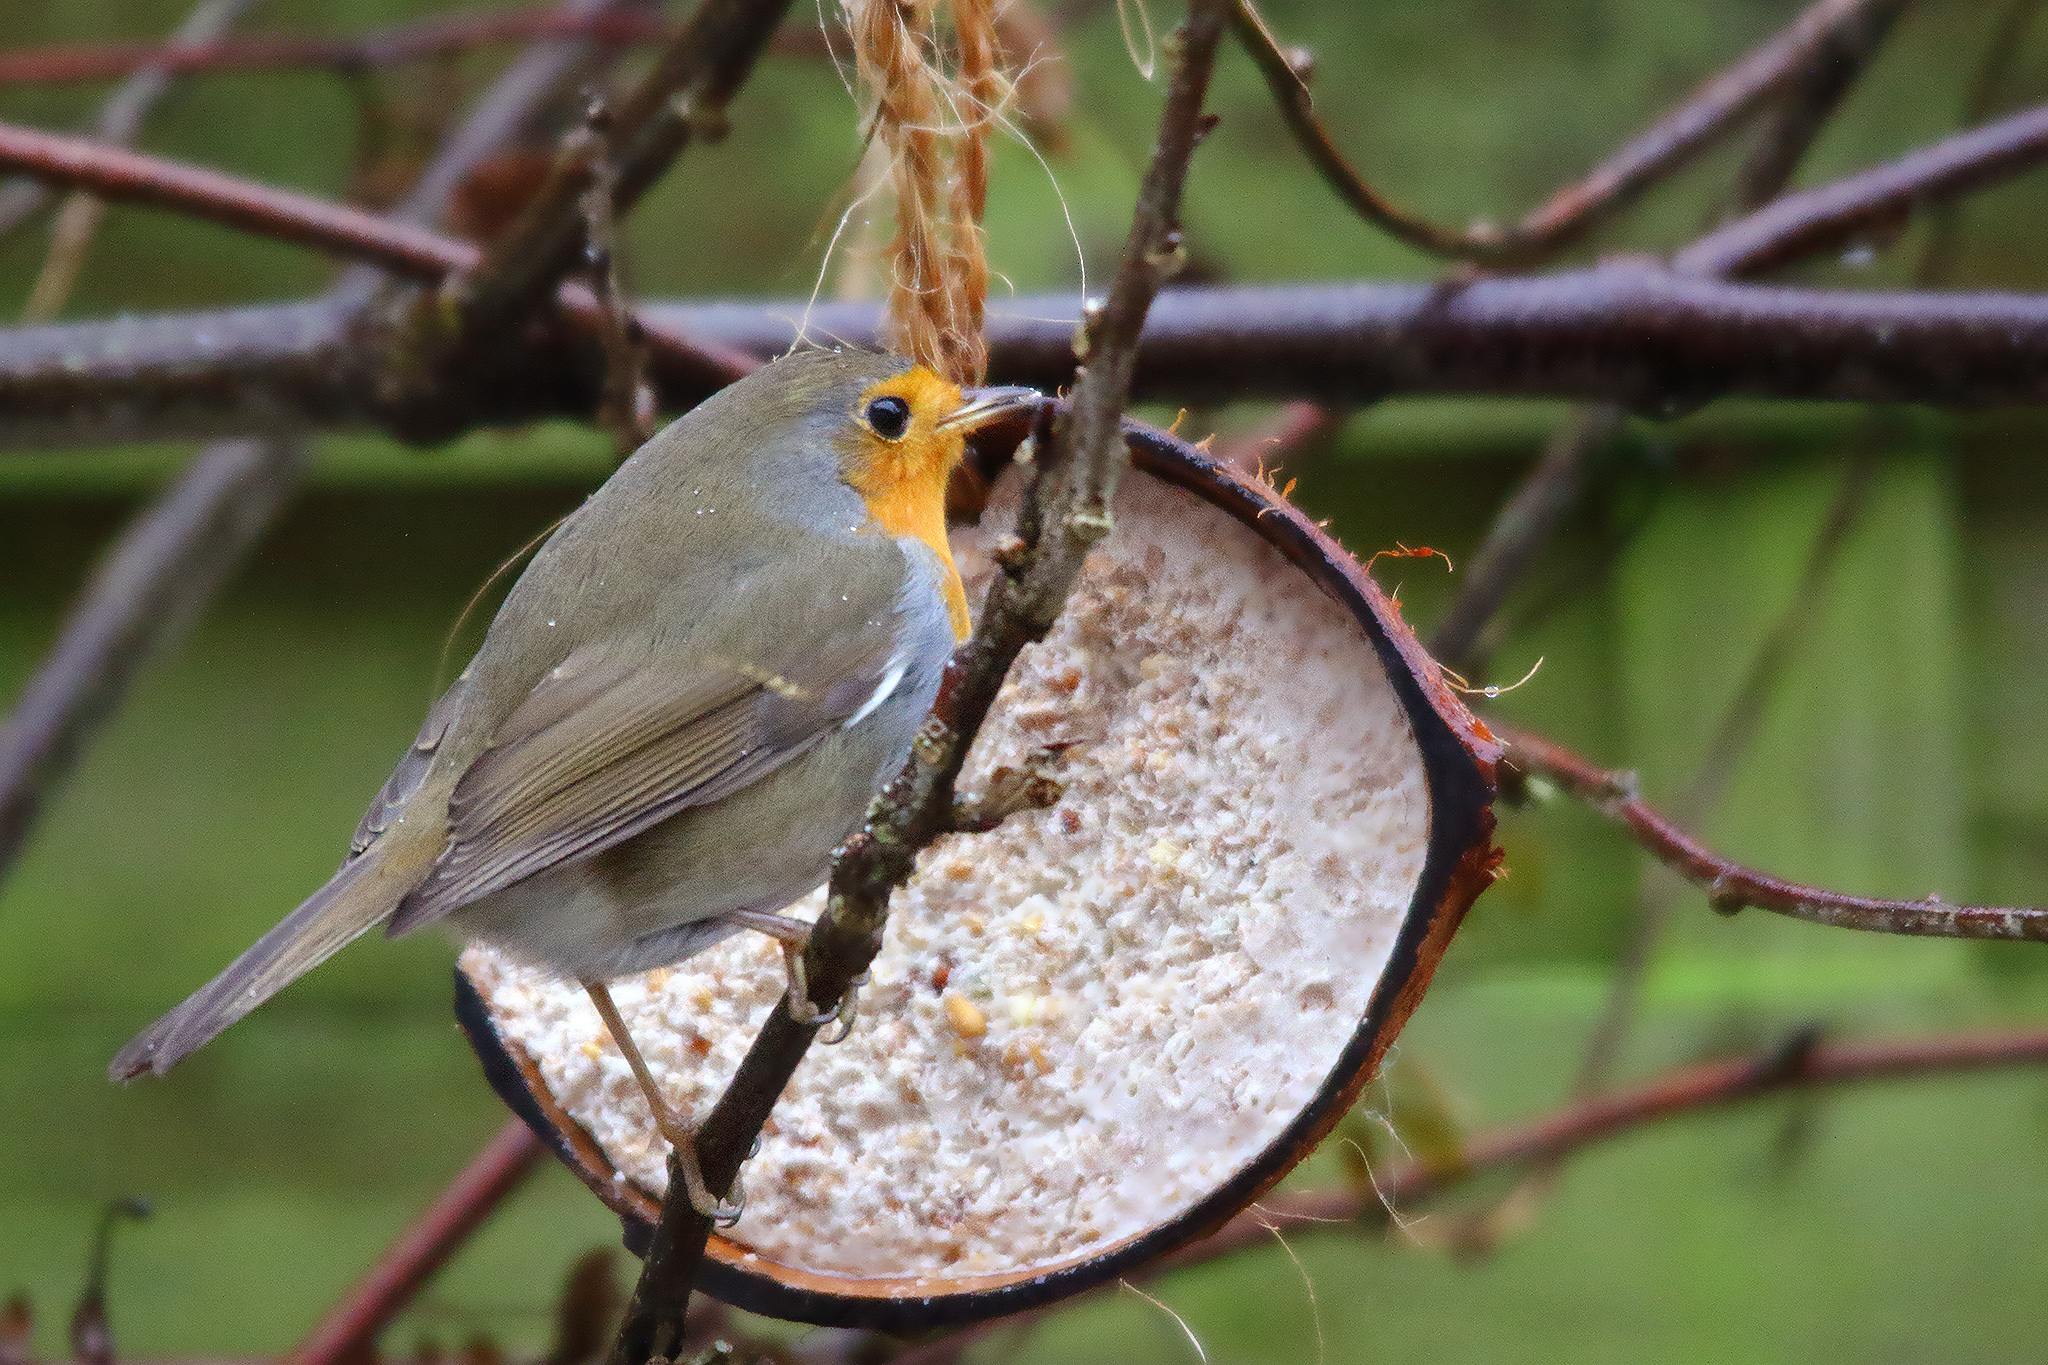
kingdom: Animalia
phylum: Chordata
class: Aves
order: Passeriformes
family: Muscicapidae
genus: Erithacus
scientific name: Erithacus rubecula
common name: European robin
